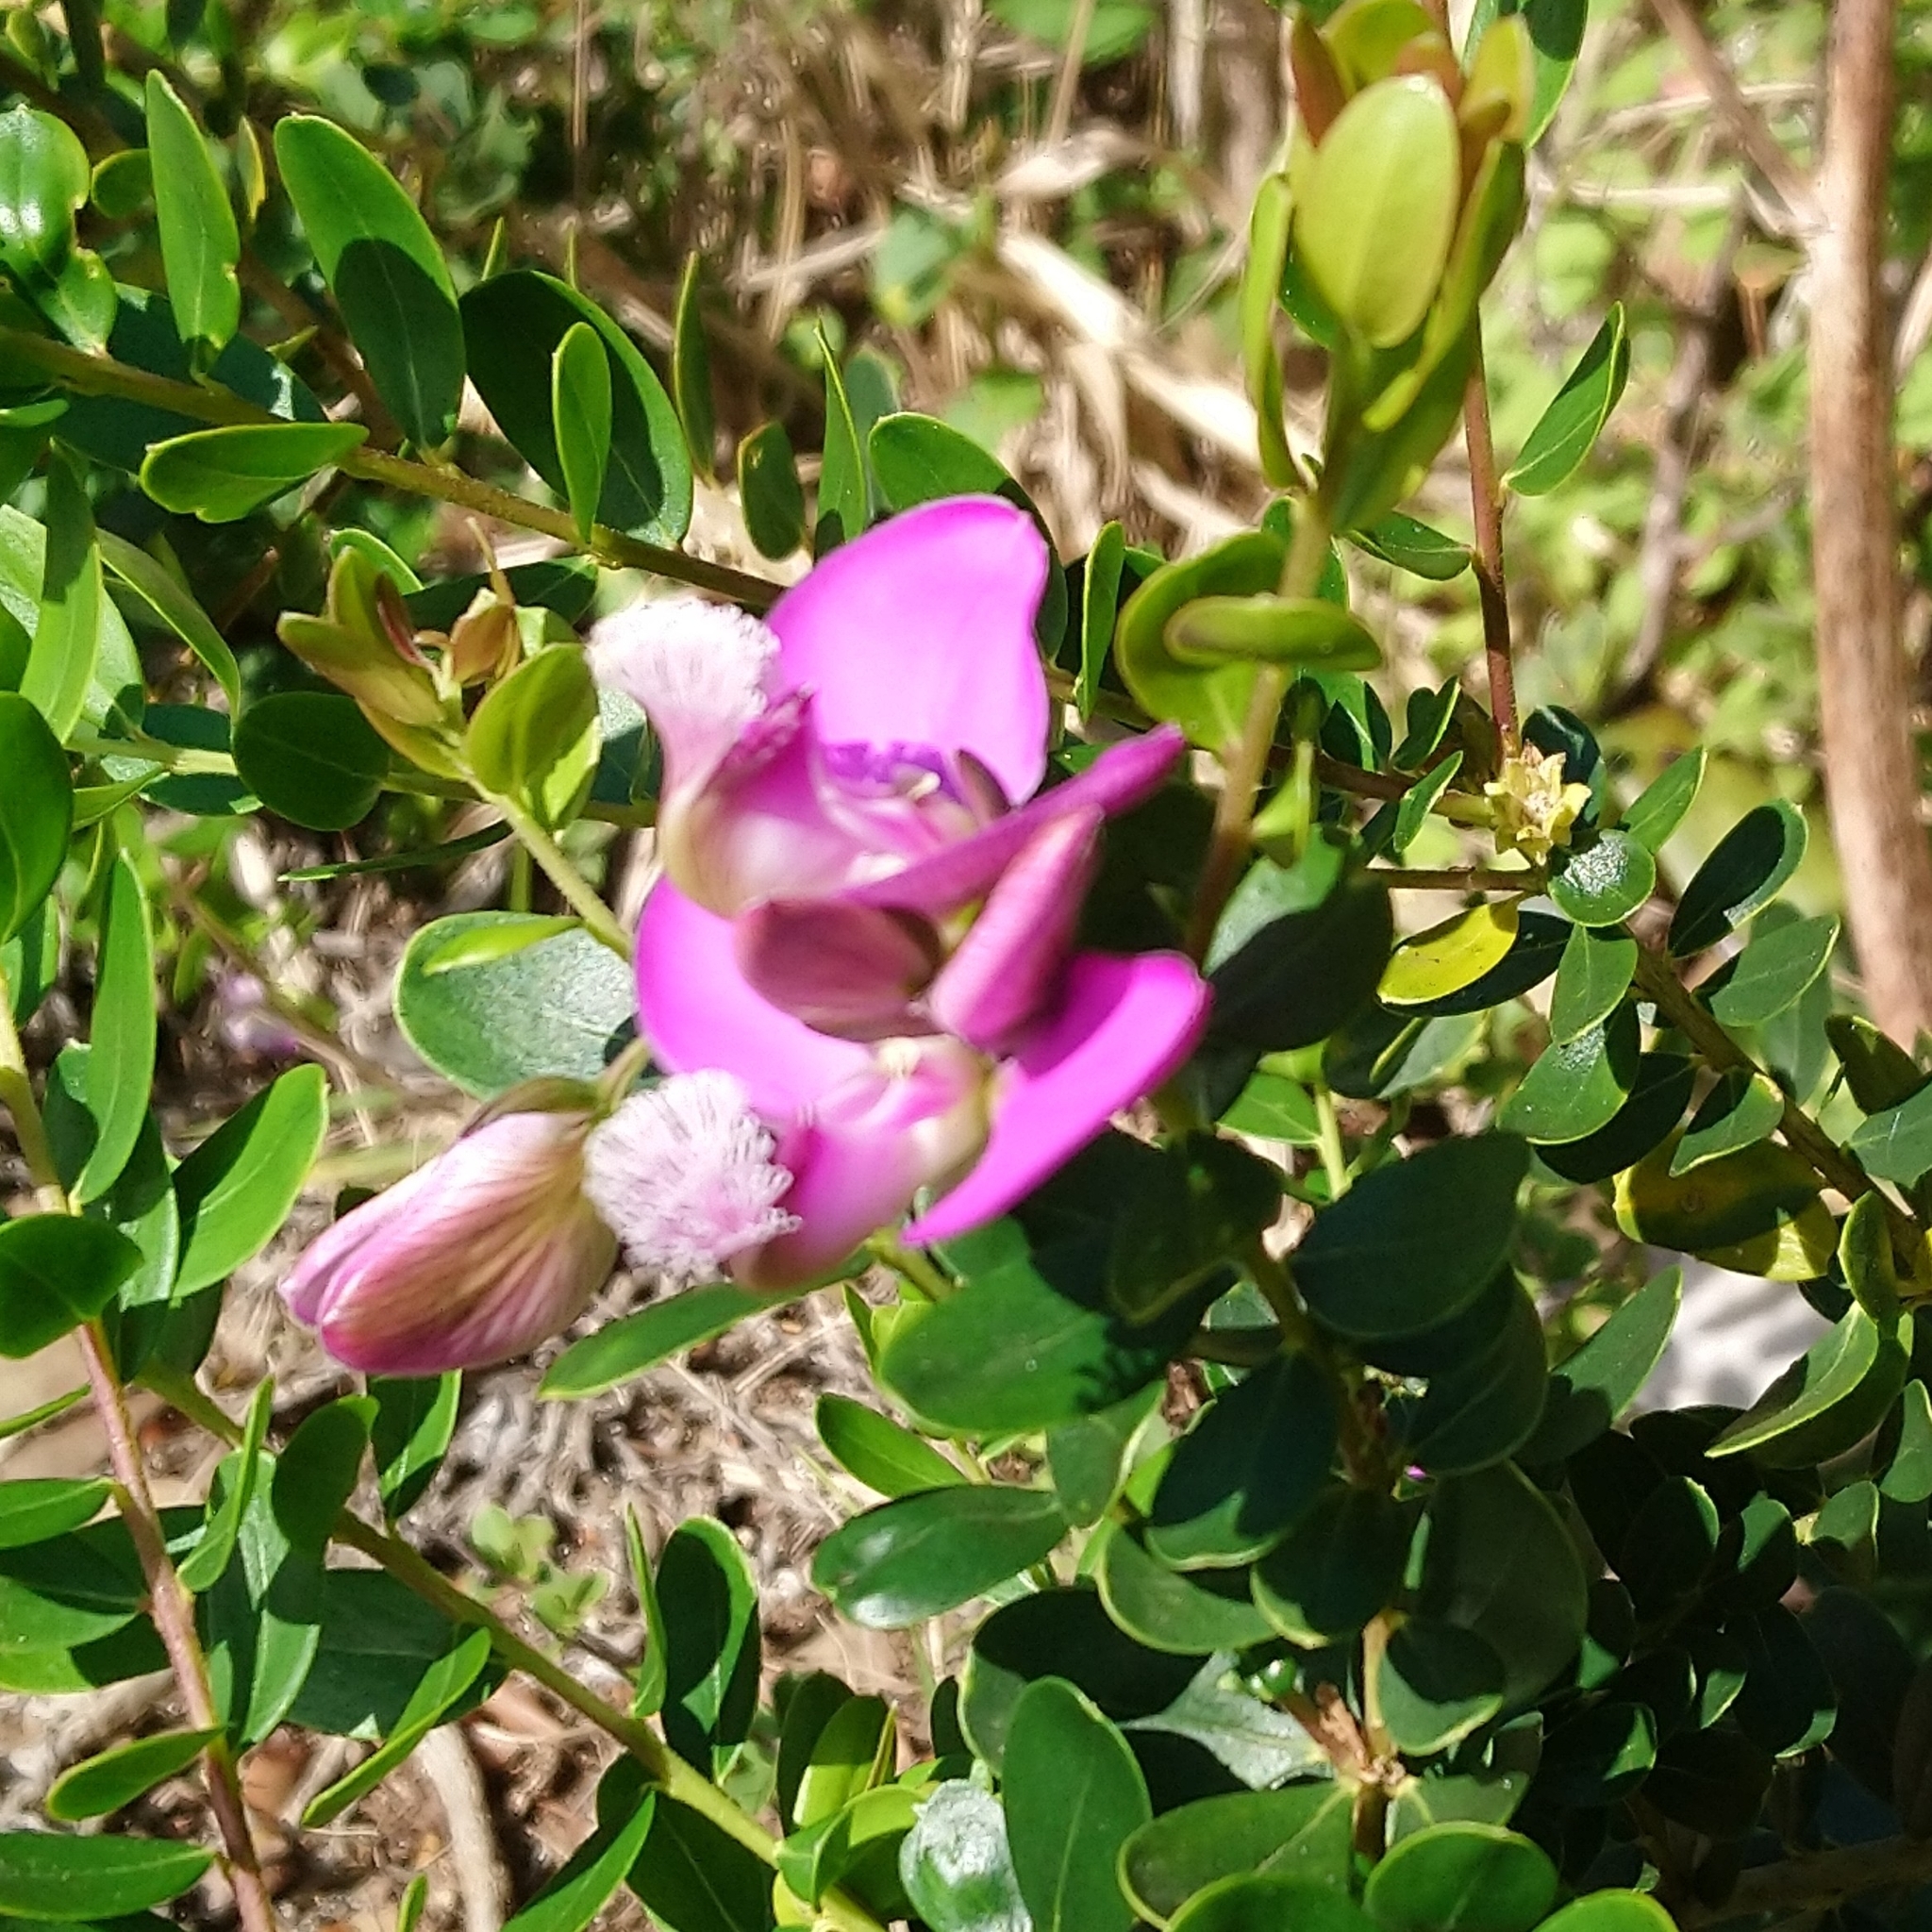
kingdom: Plantae
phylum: Tracheophyta
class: Magnoliopsida
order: Fabales
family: Polygalaceae
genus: Polygala
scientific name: Polygala myrtifolia
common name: Myrtle-leaf milkwort
